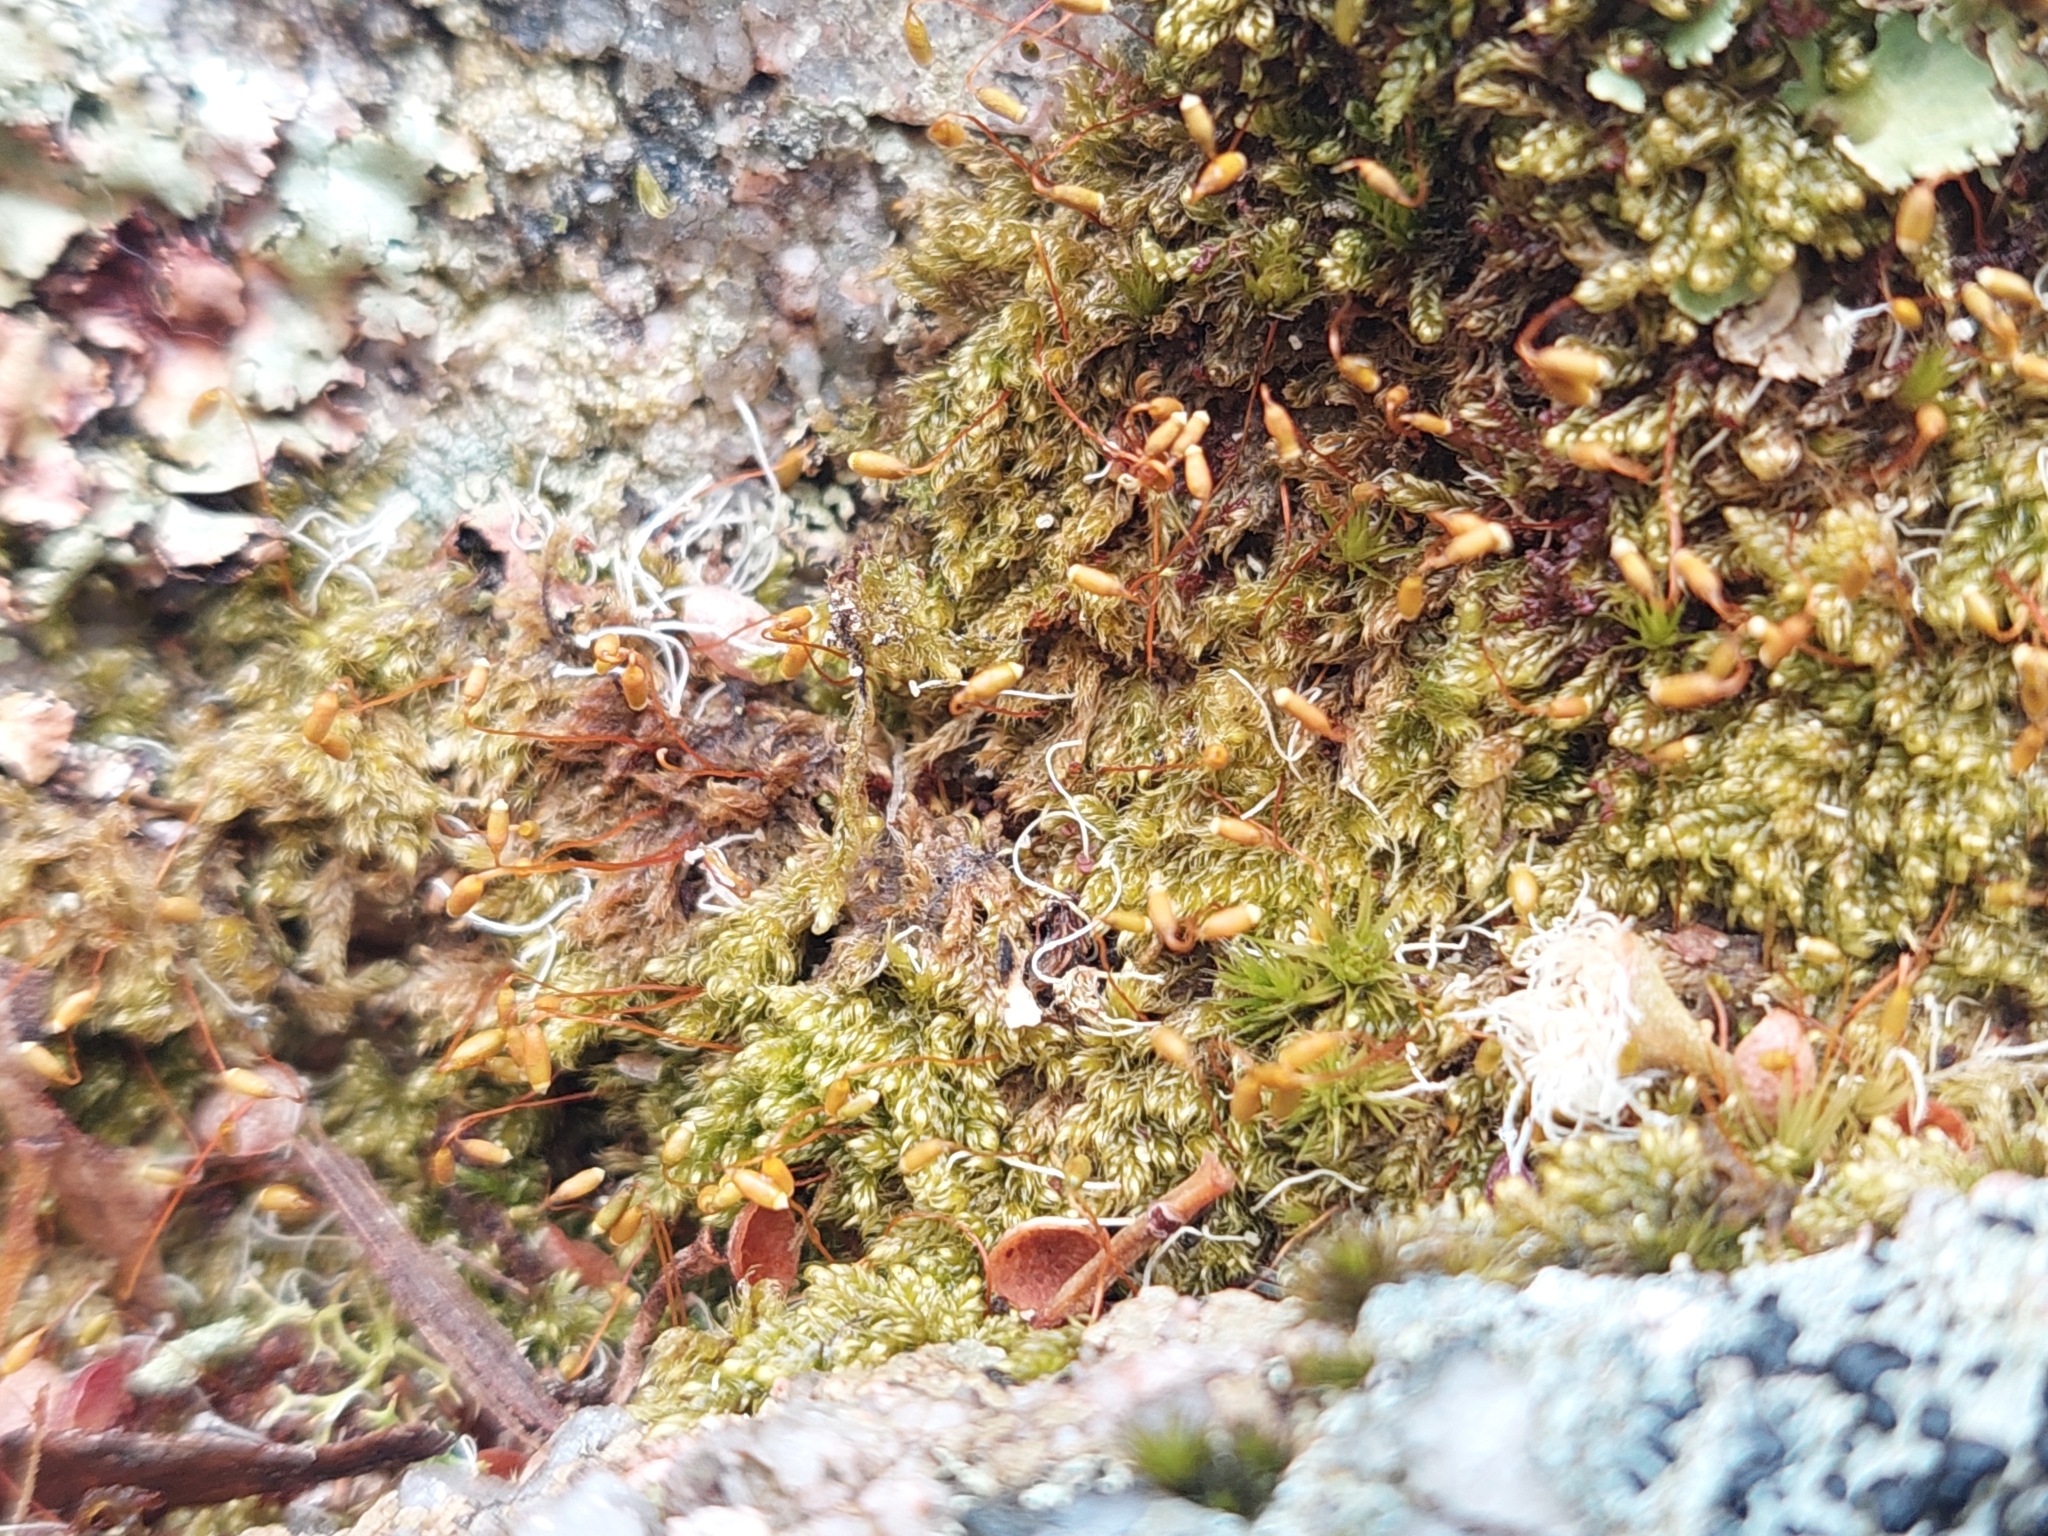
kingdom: Plantae
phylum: Bryophyta
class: Bryopsida
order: Hypnales
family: Hypnaceae
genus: Hypnum
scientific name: Hypnum cupressiforme
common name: Cypress-leaved plait-moss
